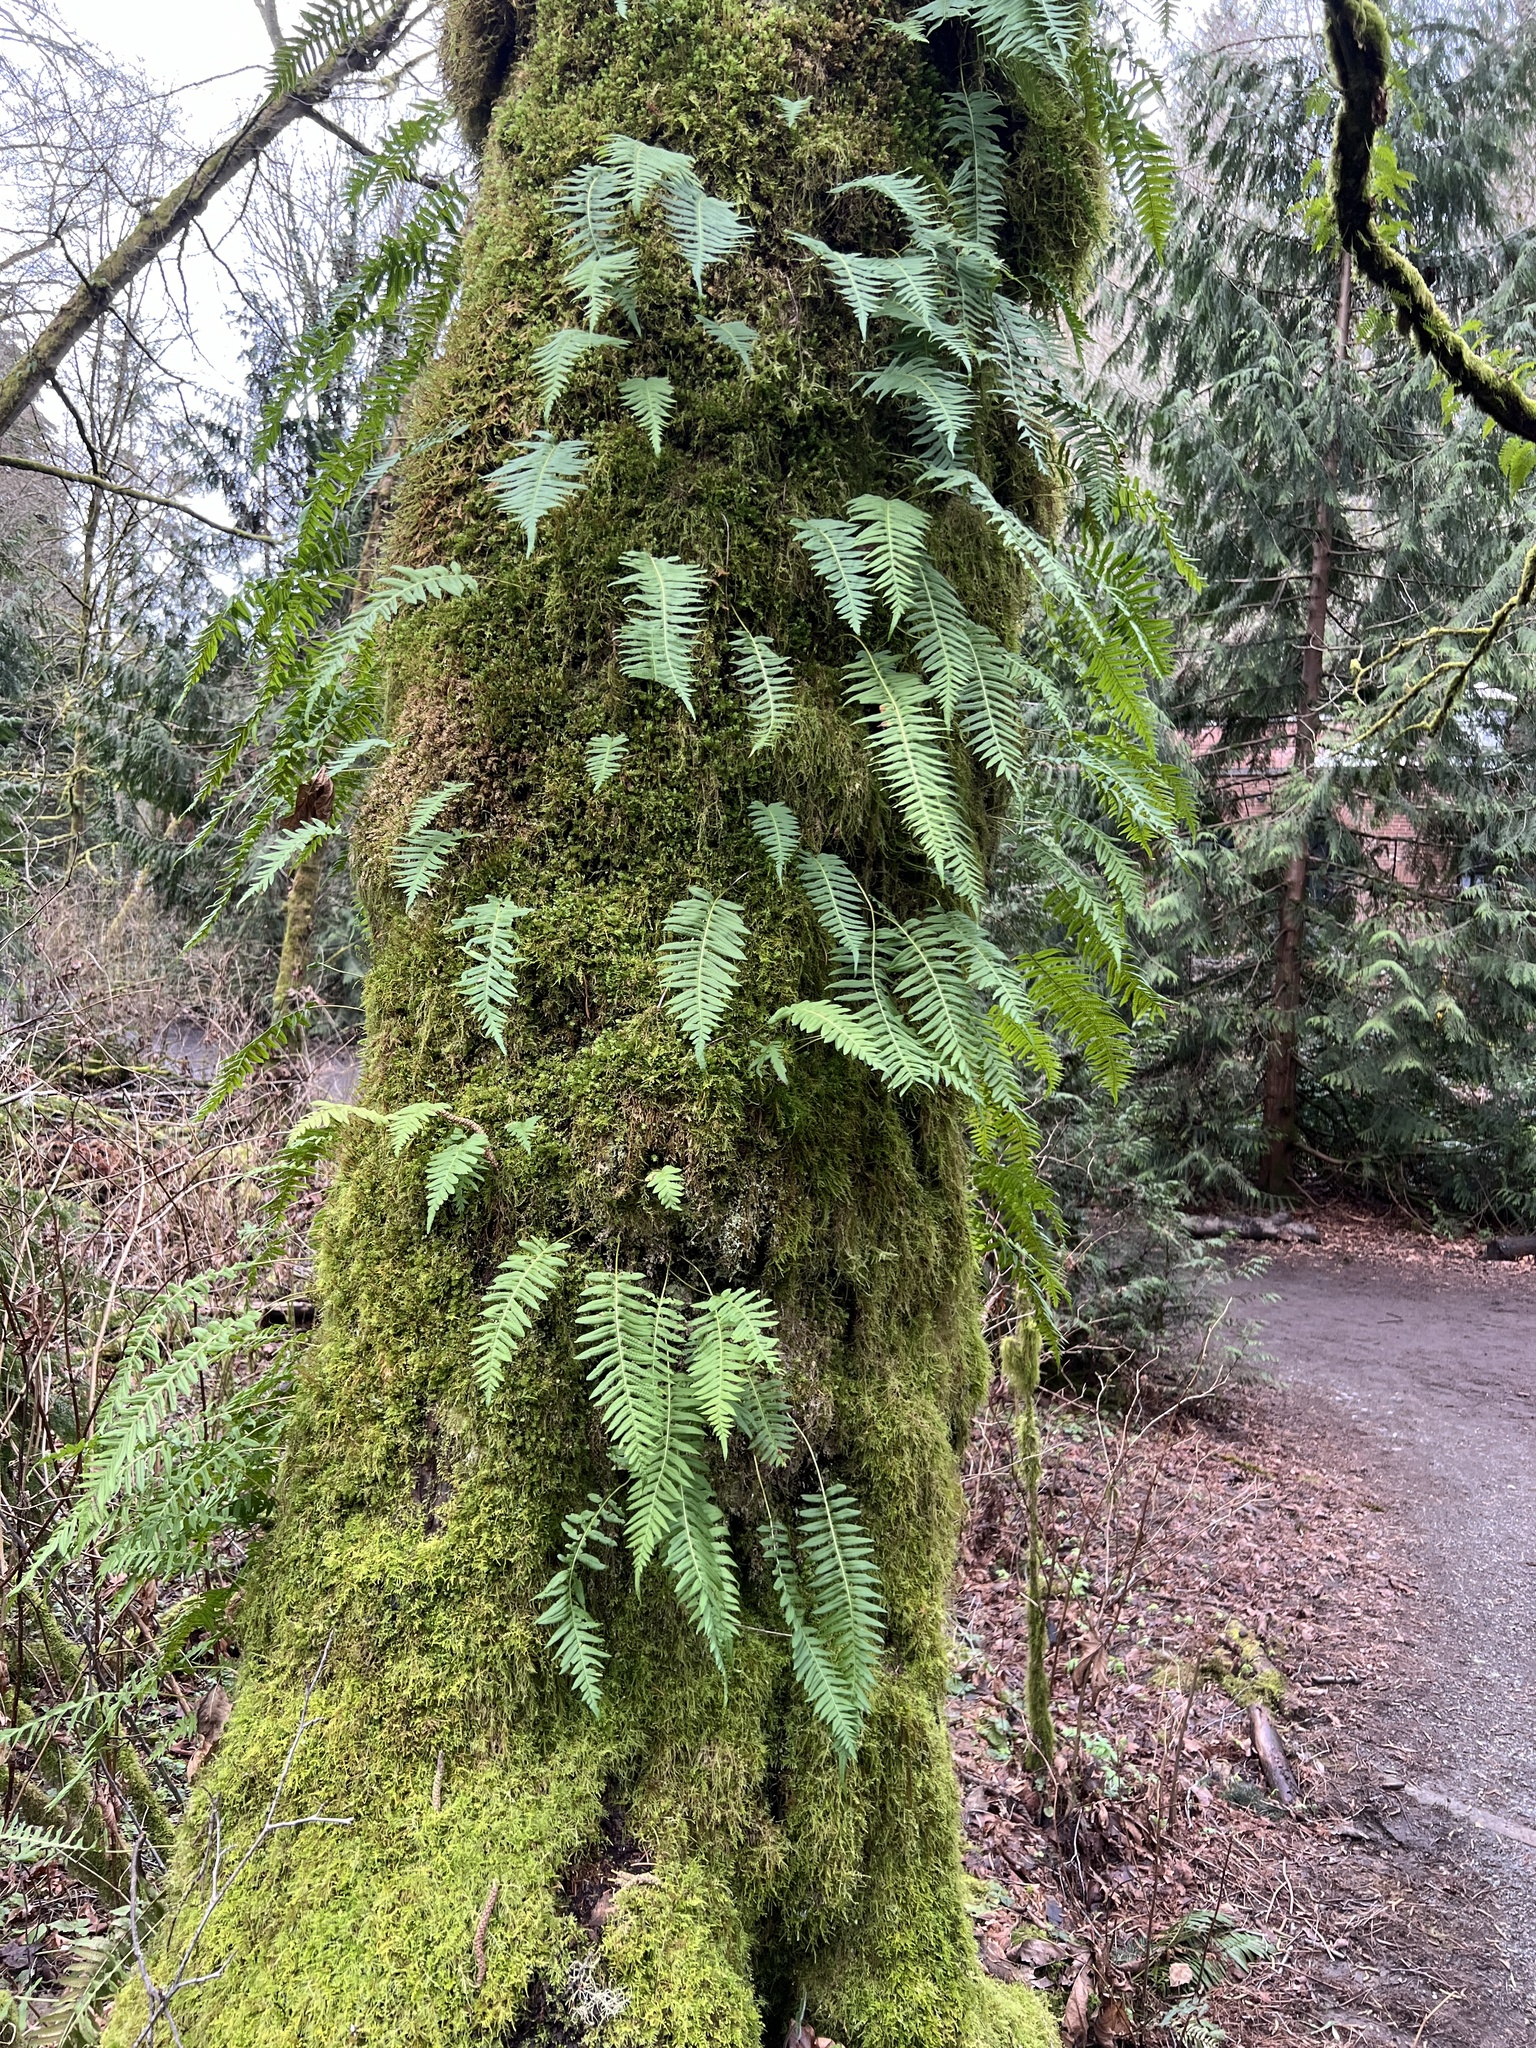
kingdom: Plantae
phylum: Tracheophyta
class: Polypodiopsida
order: Polypodiales
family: Polypodiaceae
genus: Polypodium
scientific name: Polypodium glycyrrhiza
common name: Licorice fern
